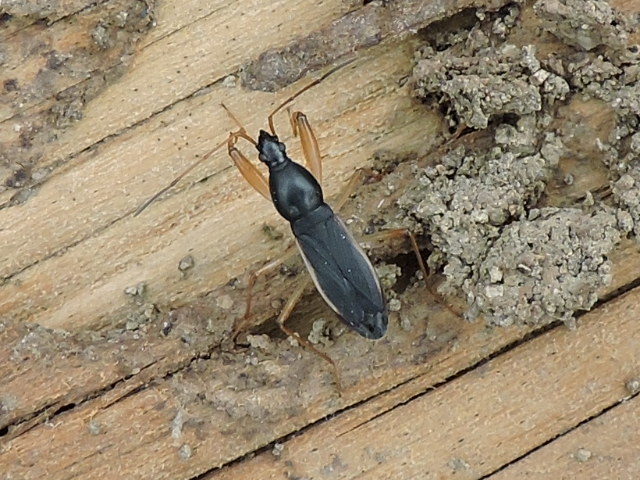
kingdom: Animalia
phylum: Arthropoda
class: Insecta
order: Hemiptera
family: Rhyparochromidae
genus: Cnemodus
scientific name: Cnemodus mavortius
